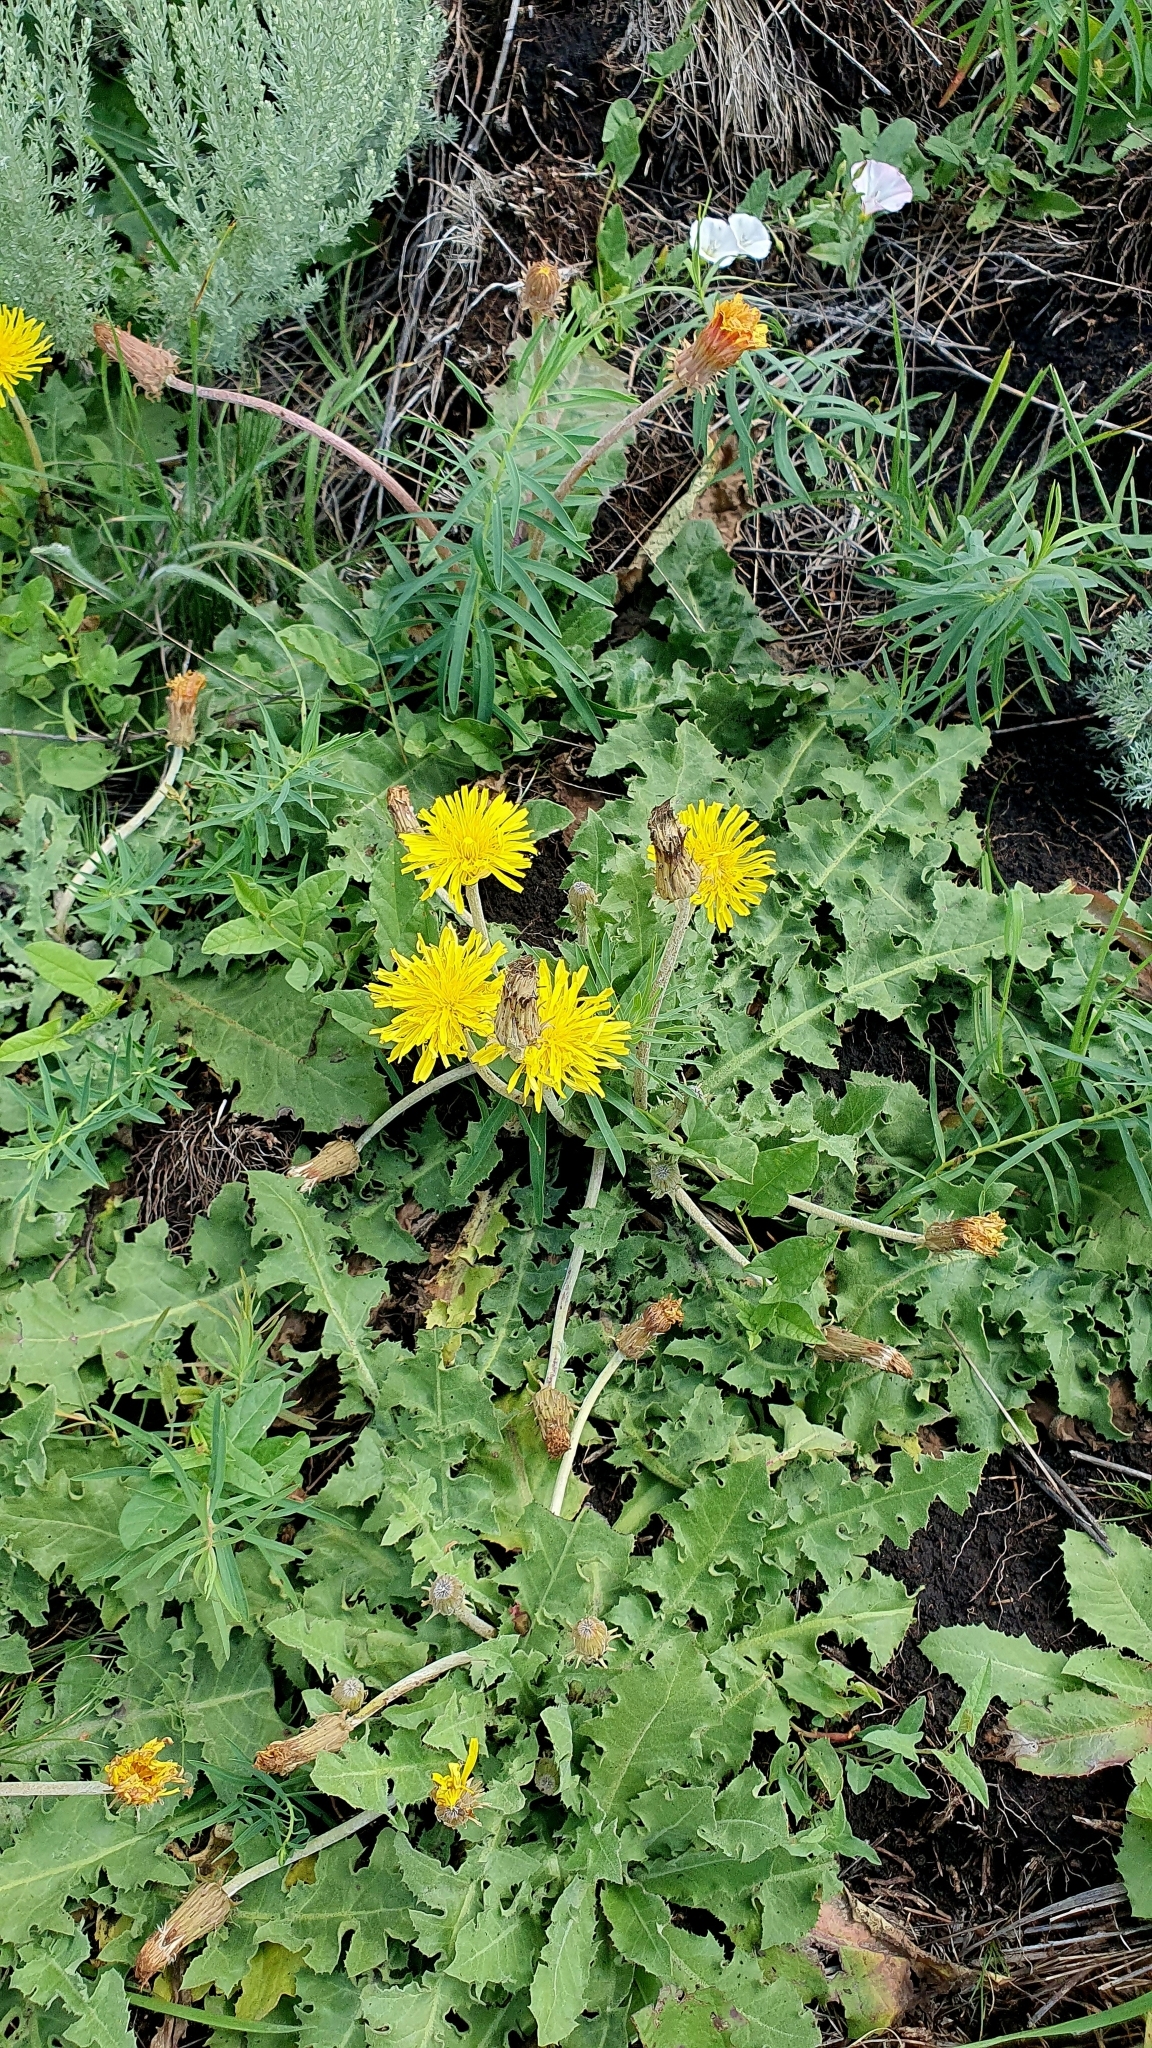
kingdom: Plantae
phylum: Tracheophyta
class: Magnoliopsida
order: Asterales
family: Asteraceae
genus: Taraxacum
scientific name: Taraxacum serotinum
